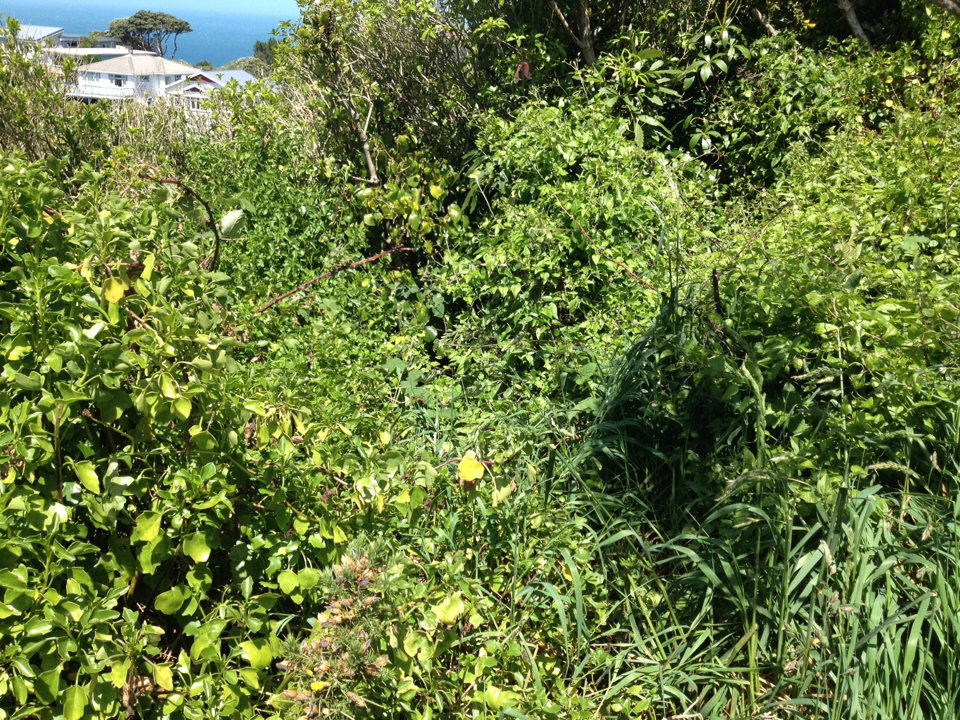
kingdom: Plantae
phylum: Tracheophyta
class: Magnoliopsida
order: Asterales
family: Asteraceae
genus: Delairea
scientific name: Delairea odorata
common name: Cape-ivy
